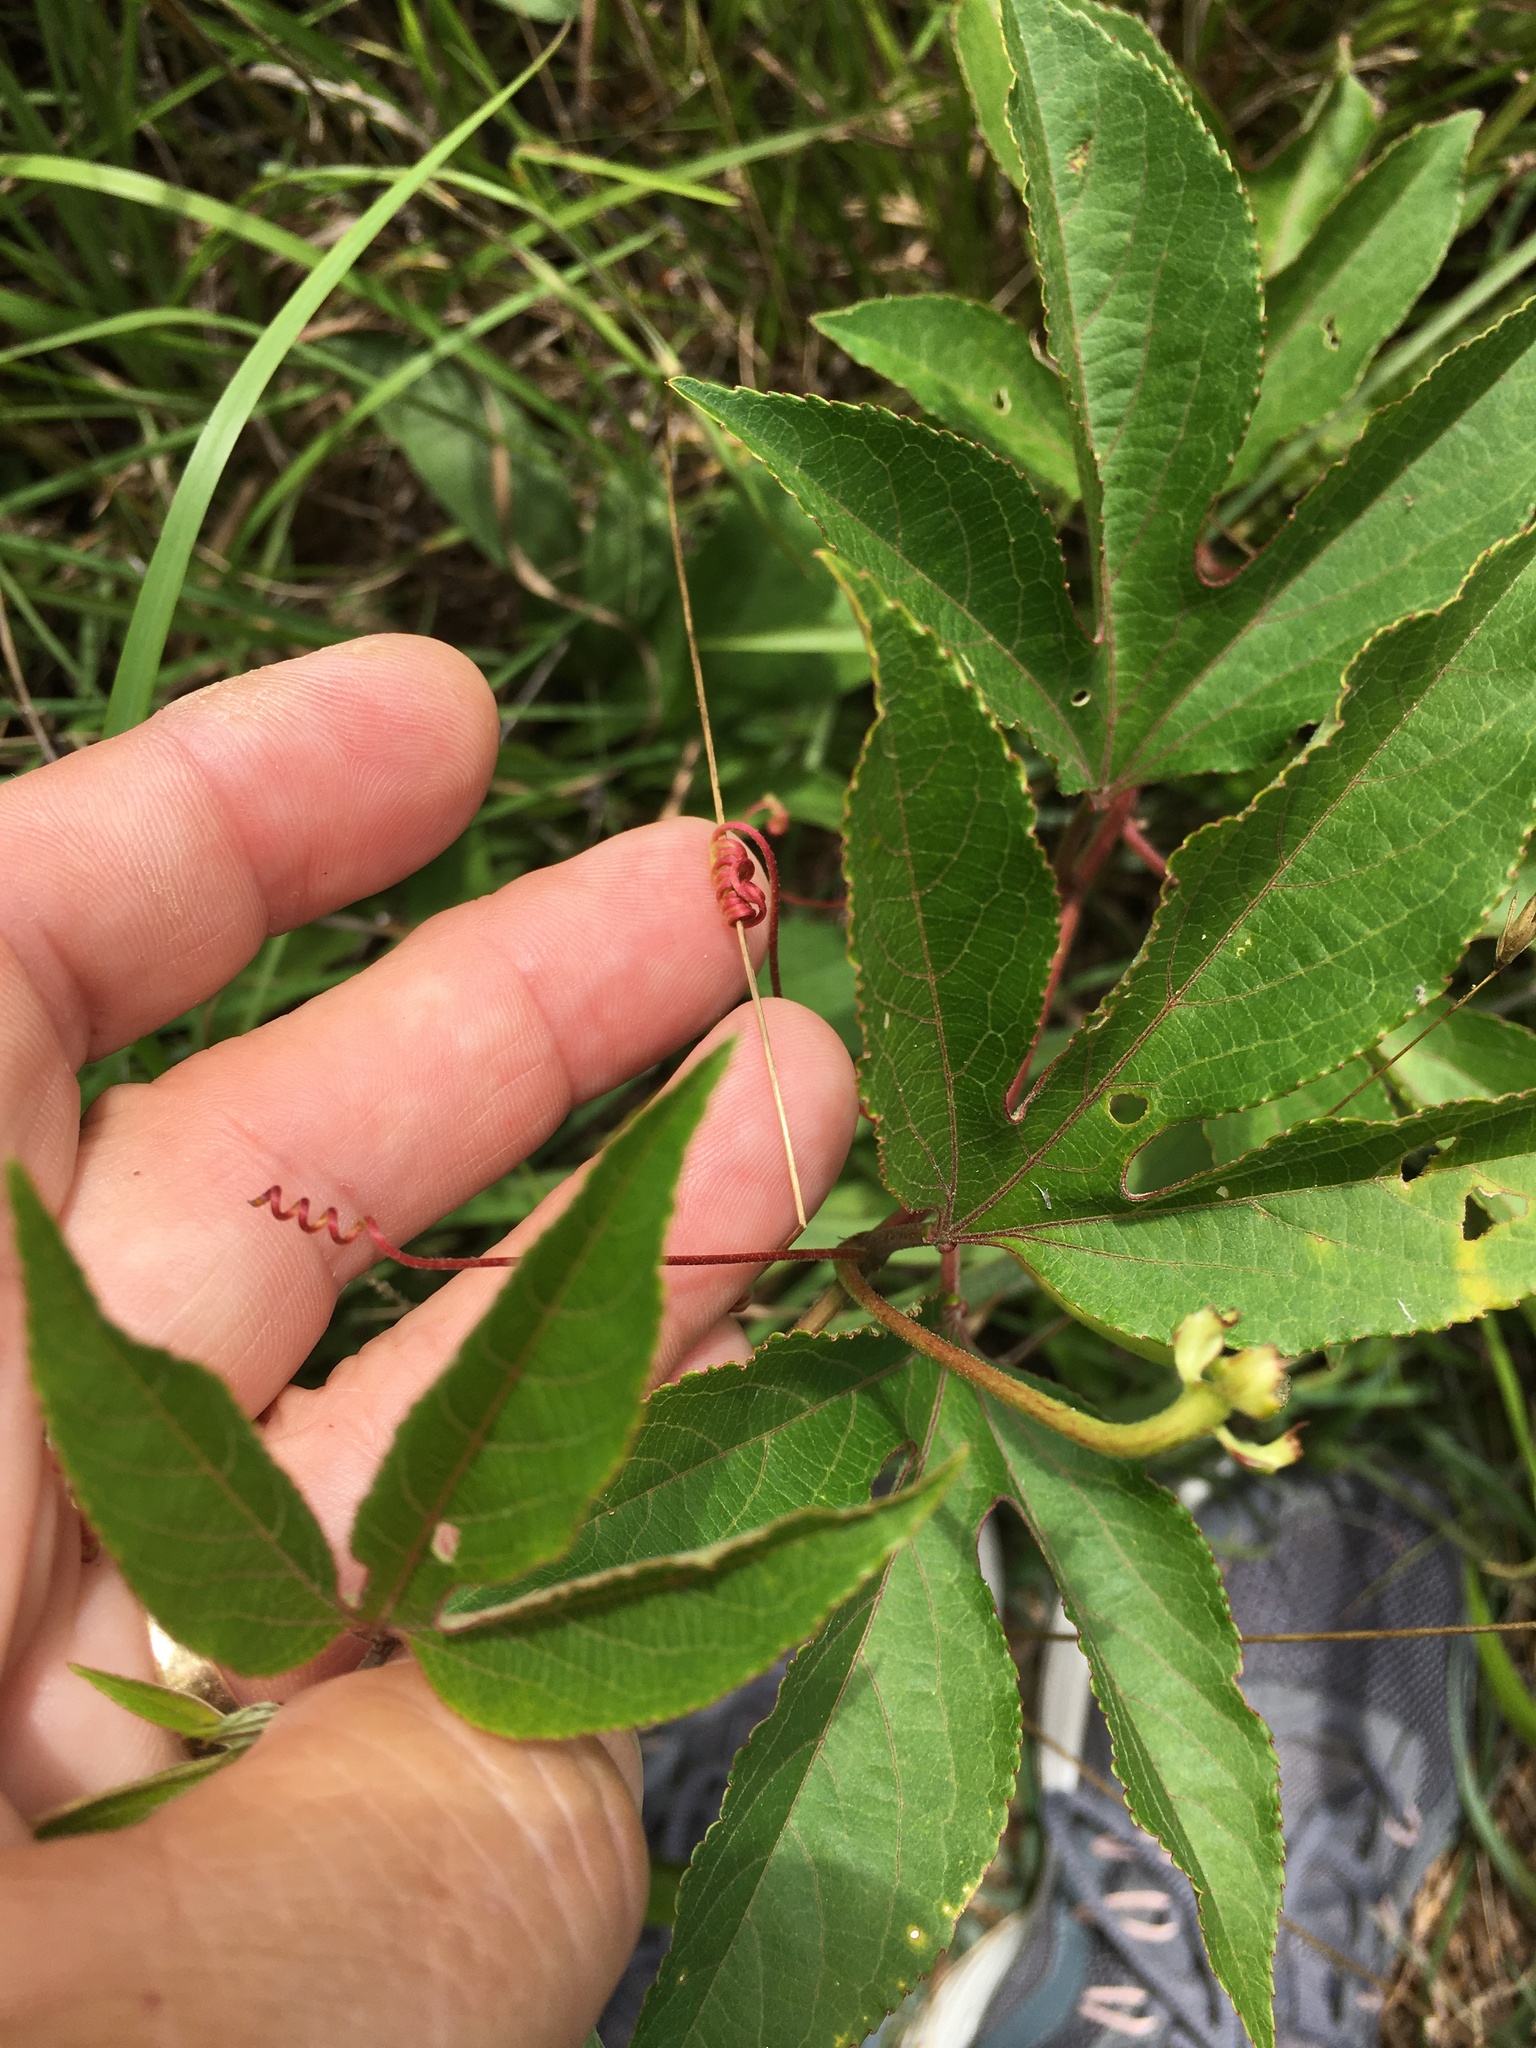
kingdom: Plantae
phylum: Tracheophyta
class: Magnoliopsida
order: Malpighiales
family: Passifloraceae
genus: Passiflora
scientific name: Passiflora incarnata
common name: Apricot-vine
